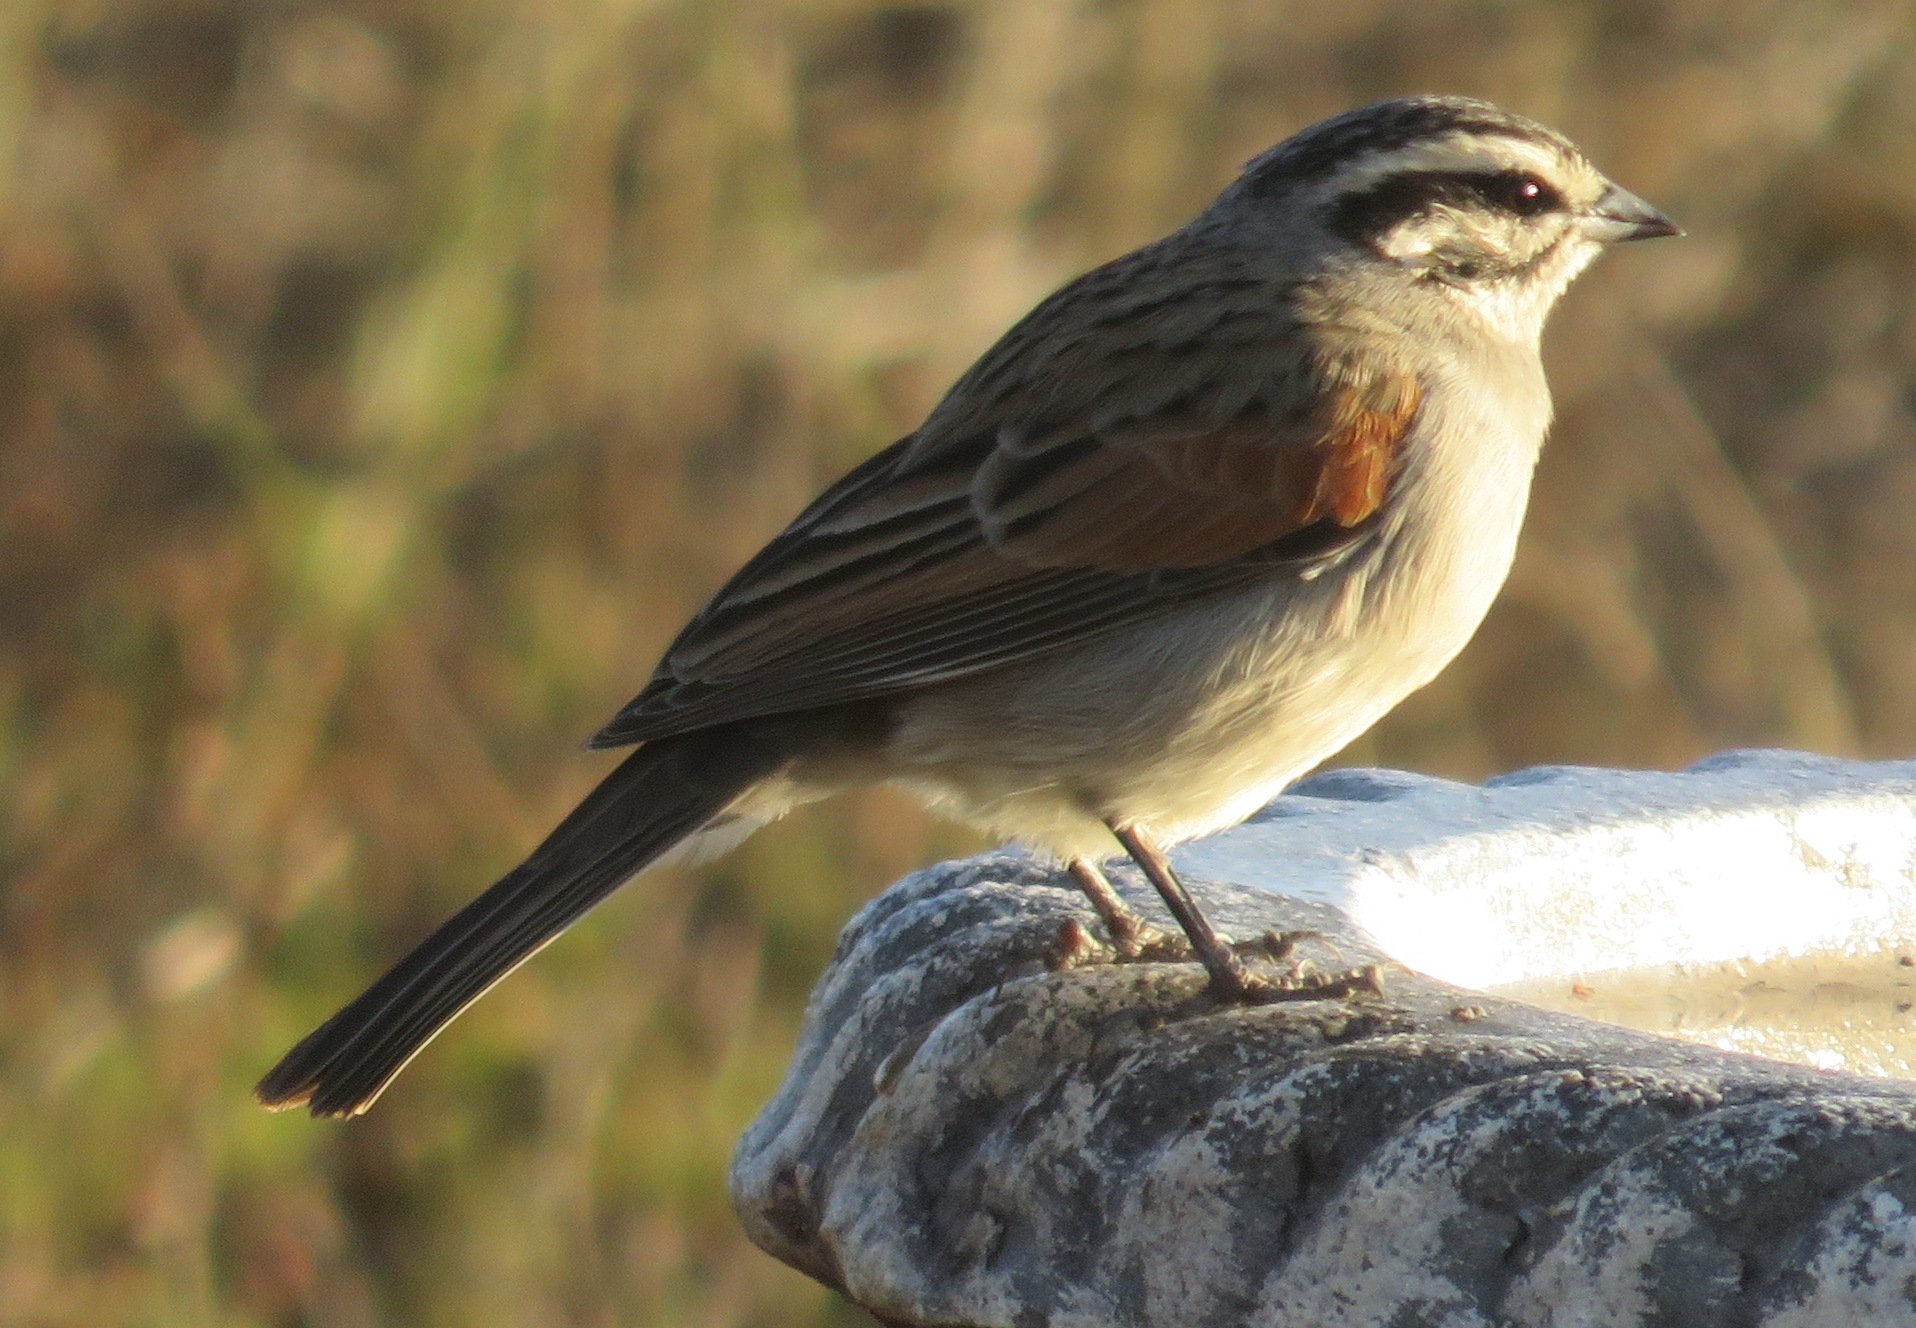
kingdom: Animalia
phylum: Chordata
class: Aves
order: Passeriformes
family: Emberizidae
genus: Emberiza
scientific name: Emberiza capensis
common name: Cape bunting
